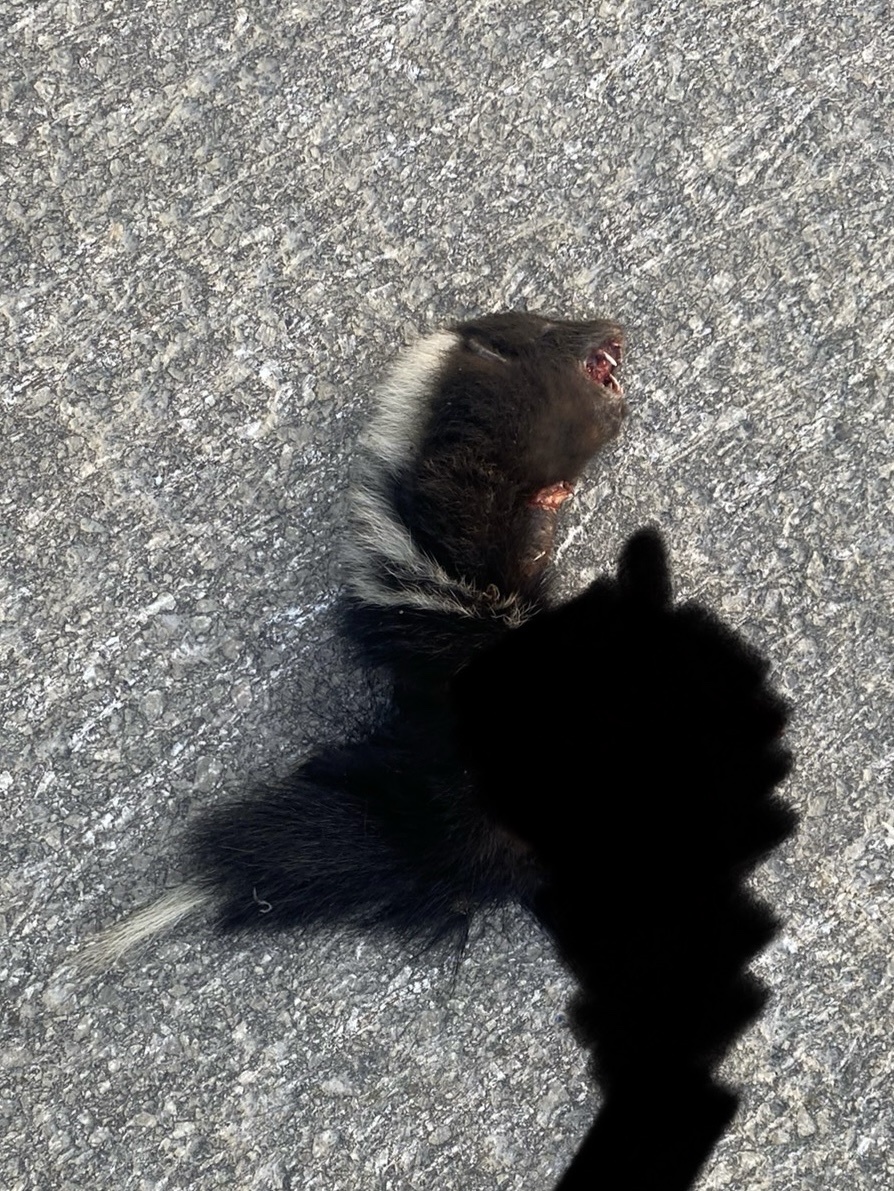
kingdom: Animalia
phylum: Chordata
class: Mammalia
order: Carnivora
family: Mephitidae
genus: Mephitis
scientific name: Mephitis mephitis
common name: Striped skunk
